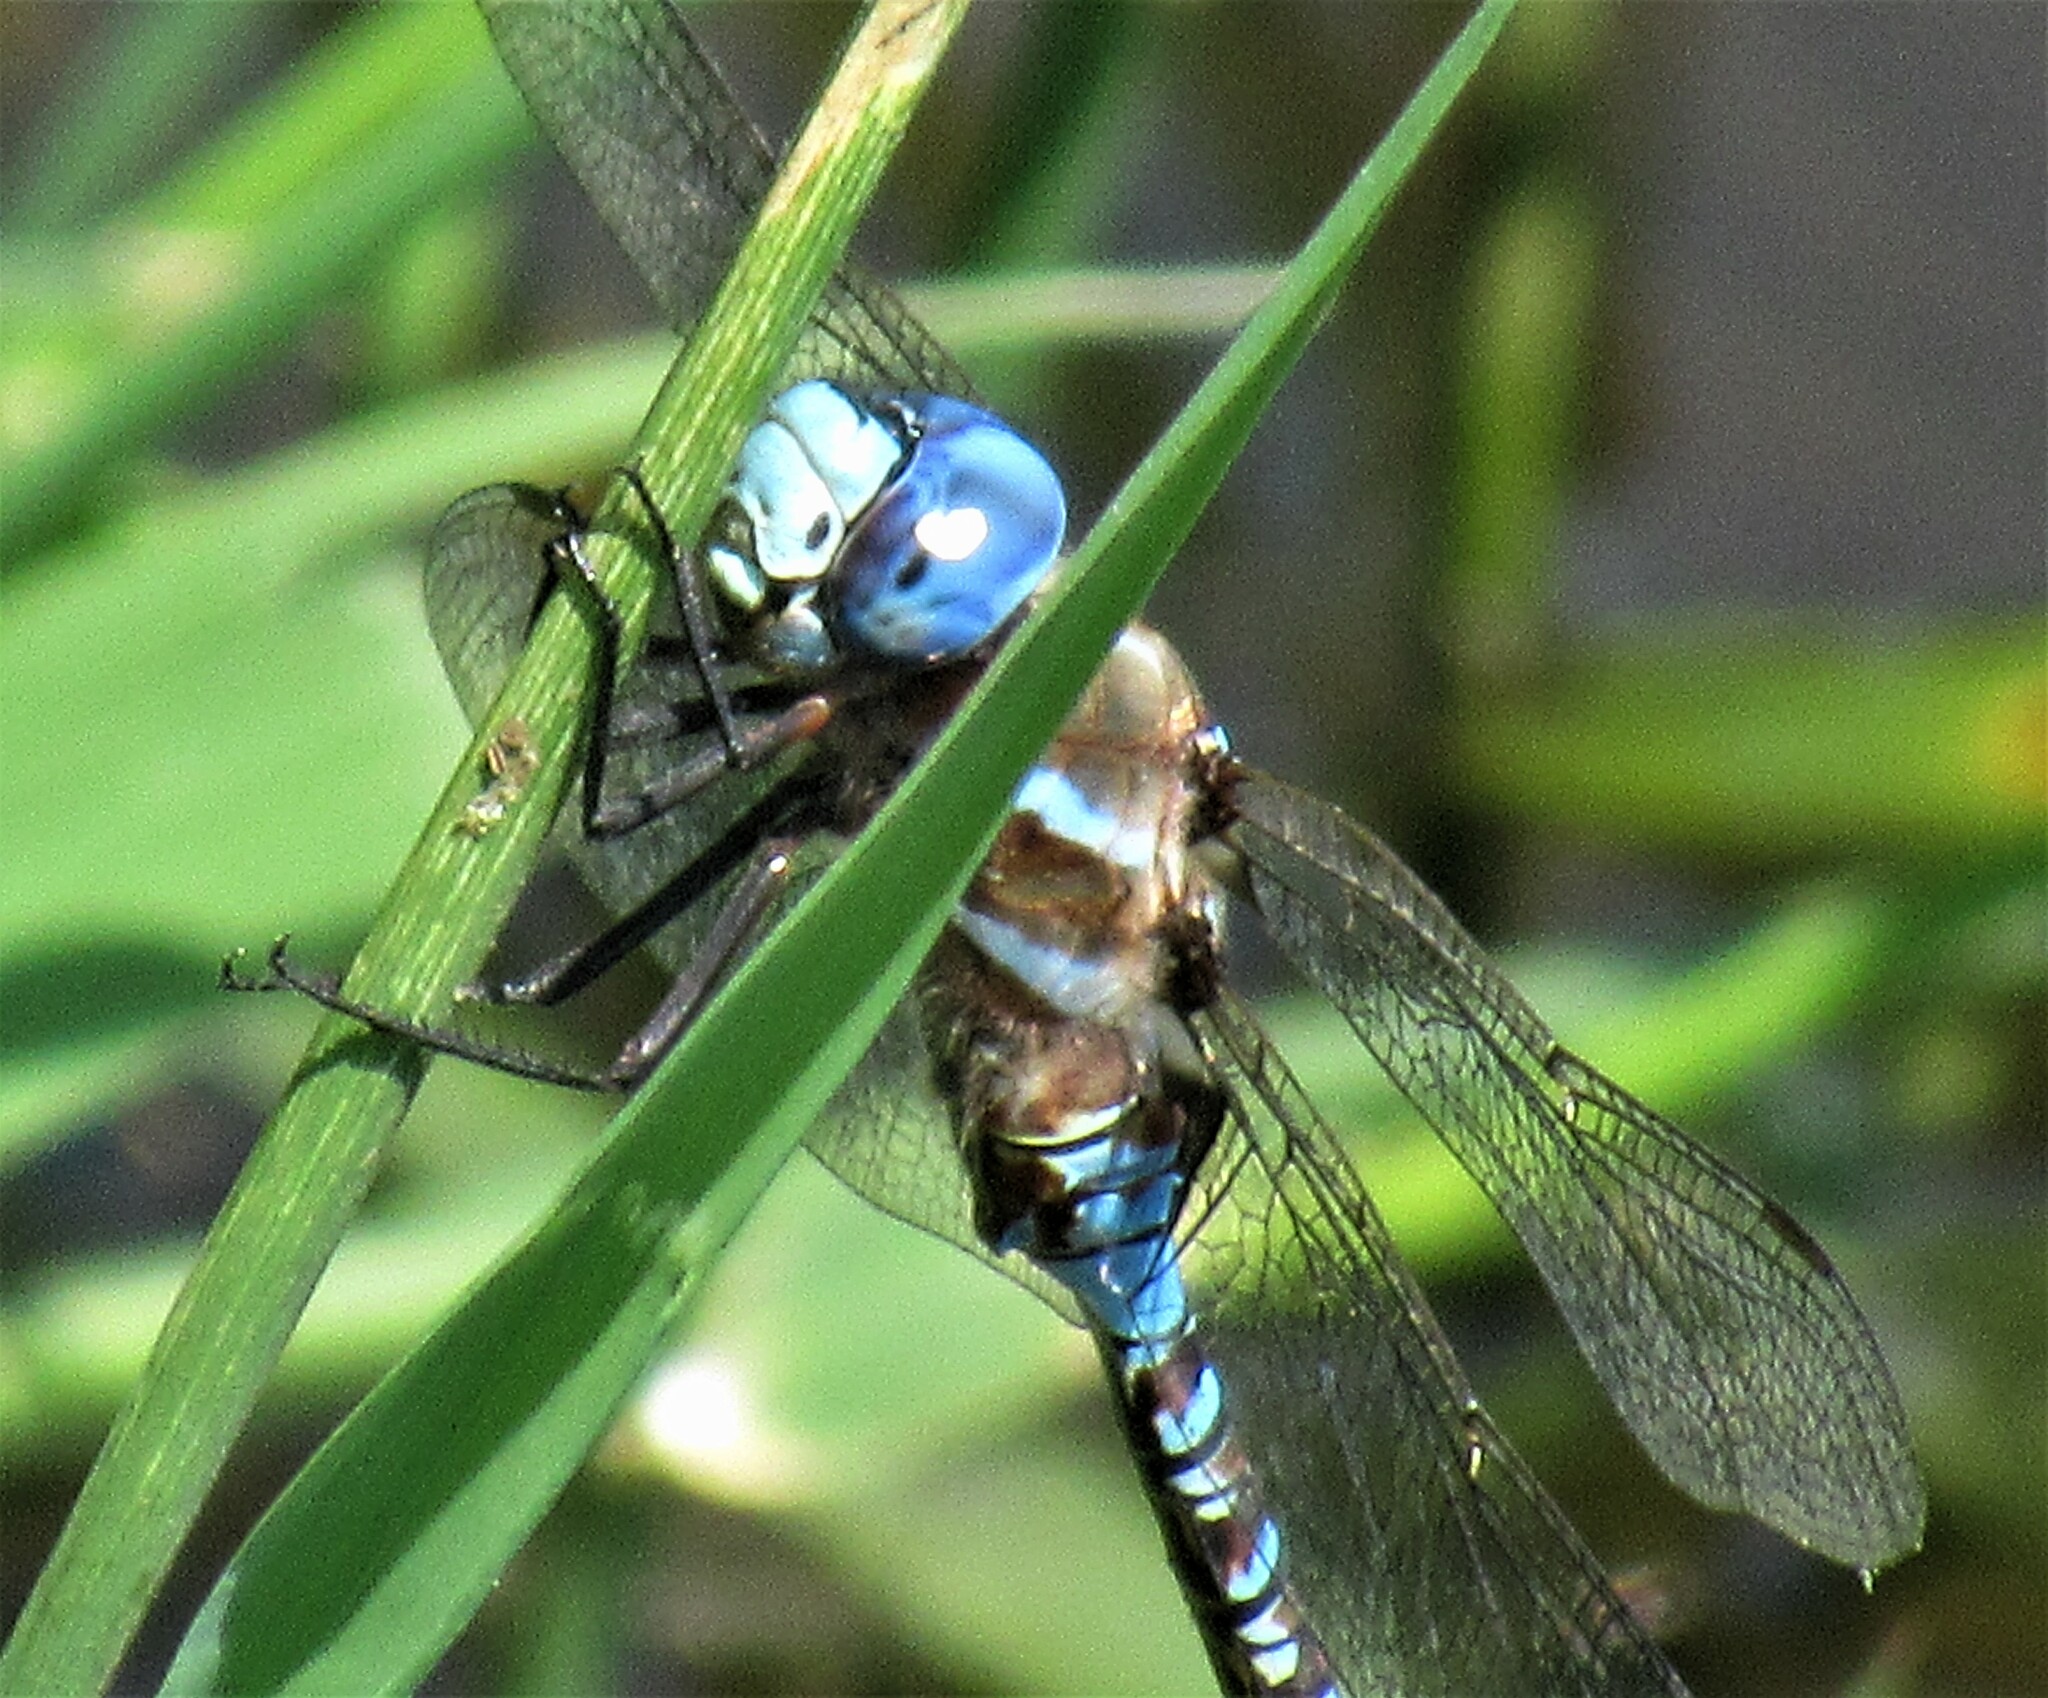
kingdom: Animalia
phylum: Arthropoda
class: Insecta
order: Odonata
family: Aeshnidae
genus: Rhionaeschna
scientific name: Rhionaeschna multicolor
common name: Blue-eyed darner
